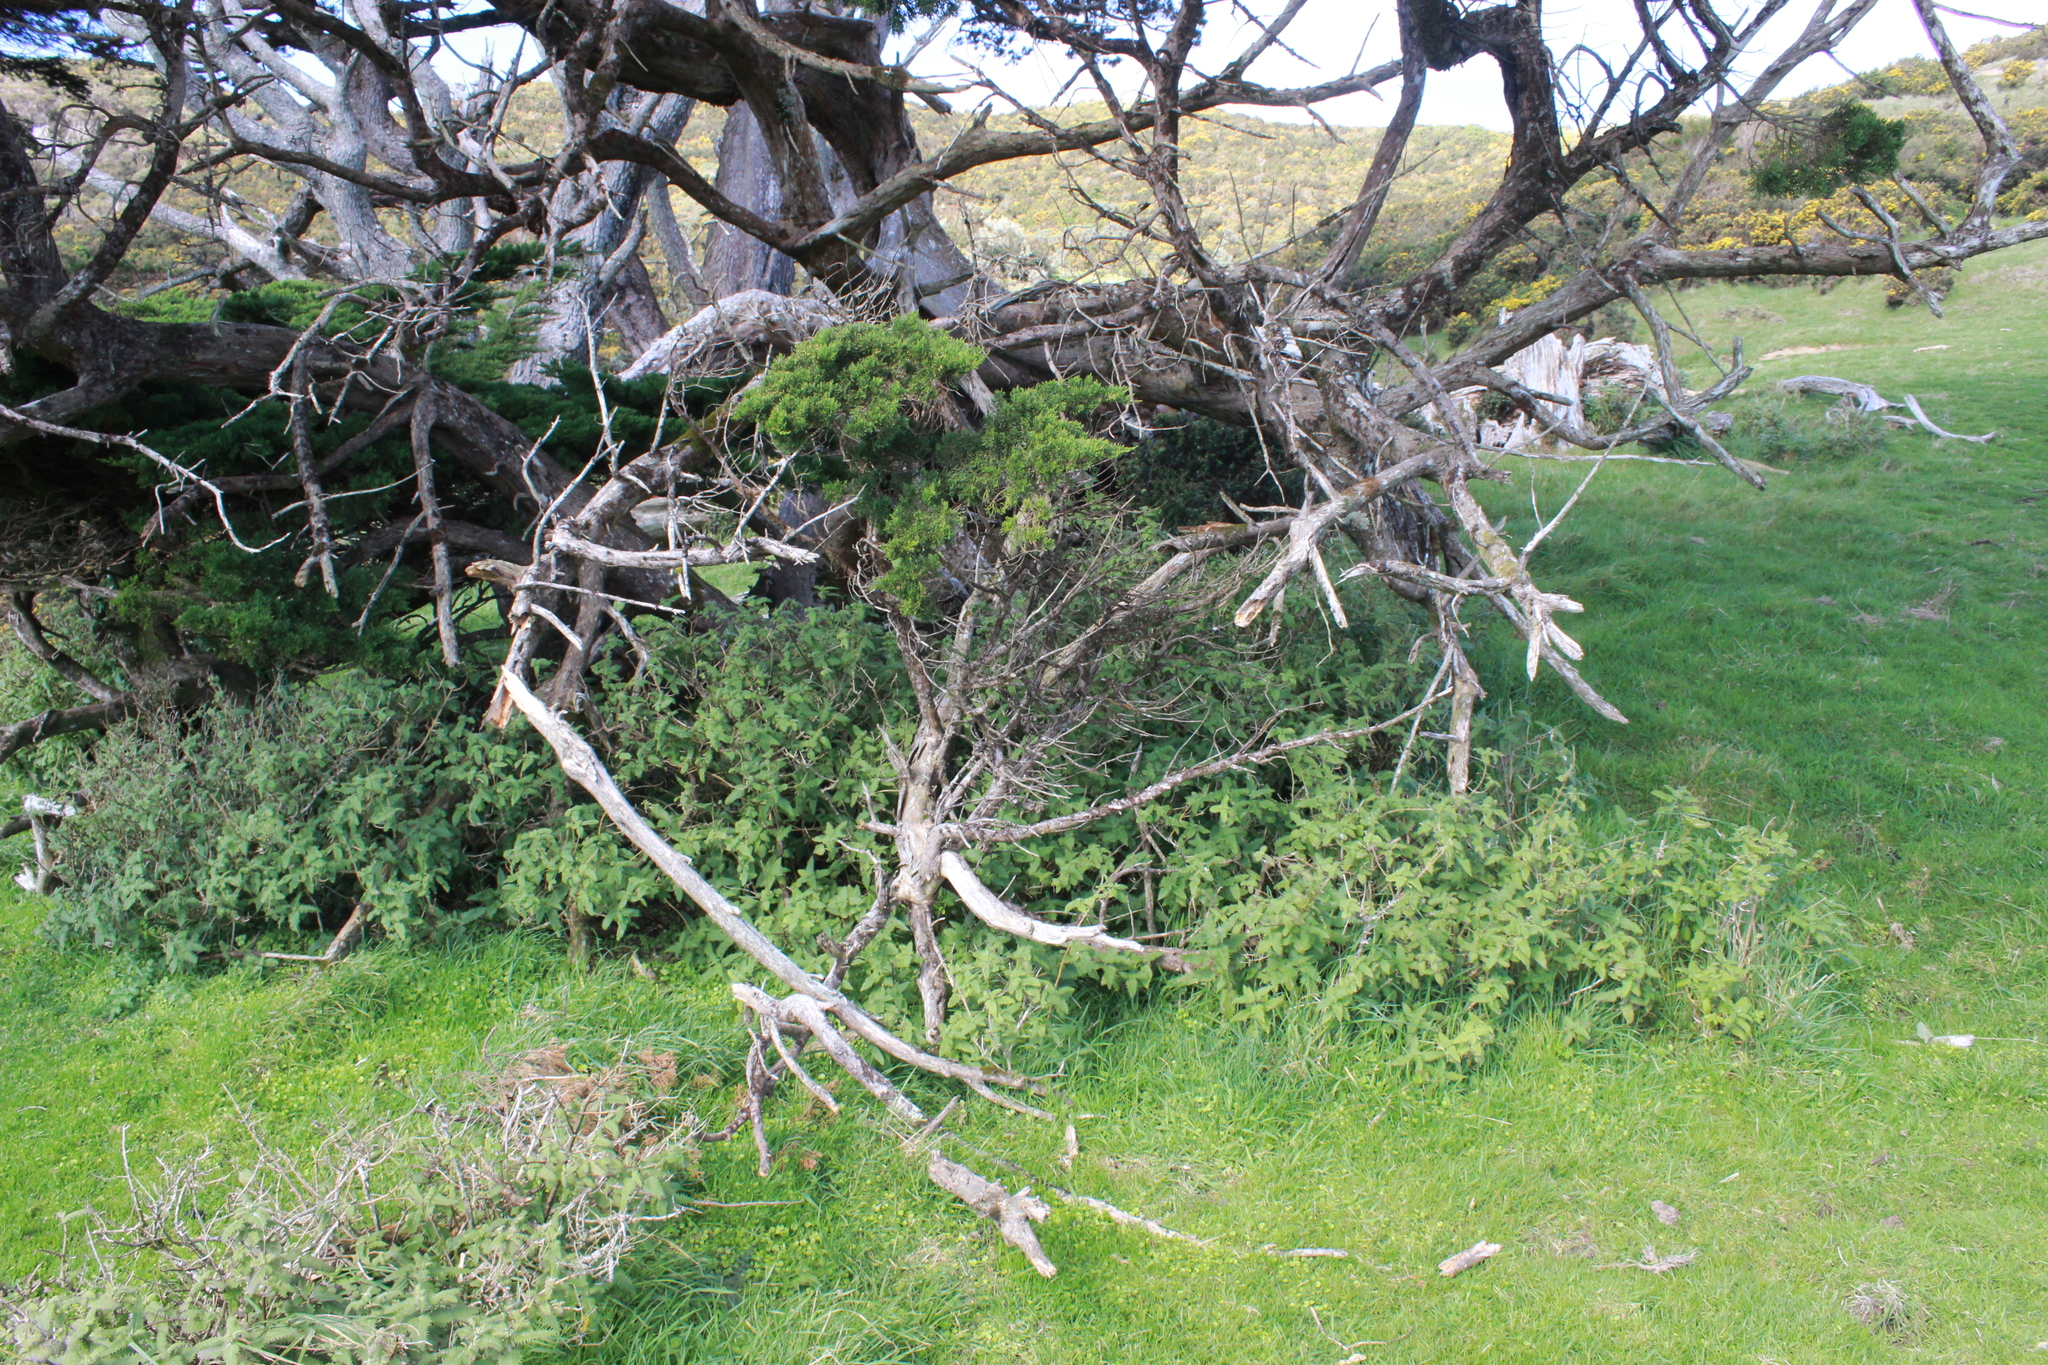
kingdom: Plantae
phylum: Tracheophyta
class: Magnoliopsida
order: Rosales
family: Urticaceae
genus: Urtica
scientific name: Urtica ferox
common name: Tree nettle
